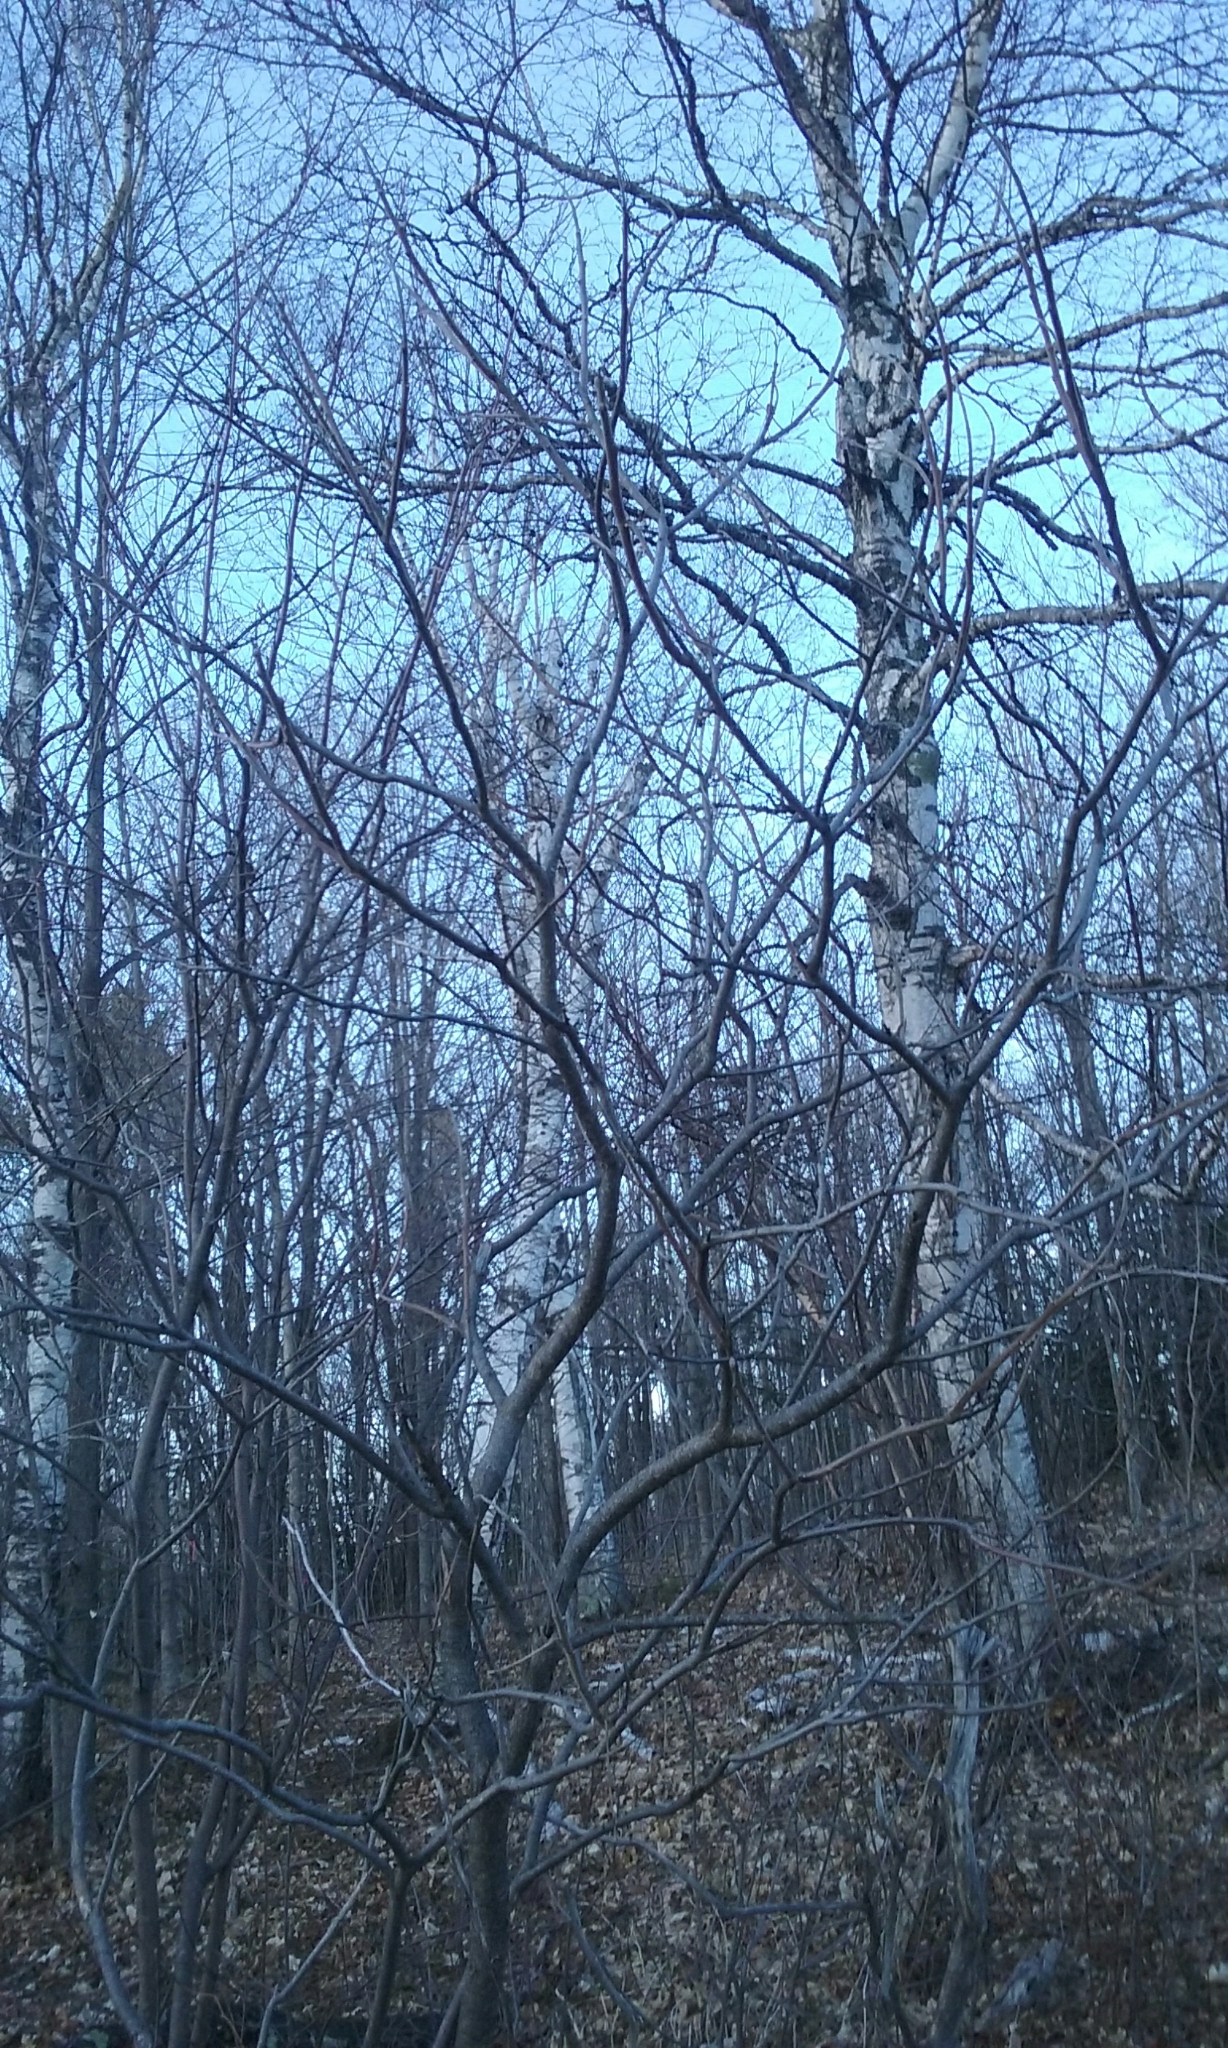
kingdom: Plantae
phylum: Tracheophyta
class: Magnoliopsida
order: Sapindales
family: Anacardiaceae
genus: Rhus
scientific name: Rhus typhina
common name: Staghorn sumac
